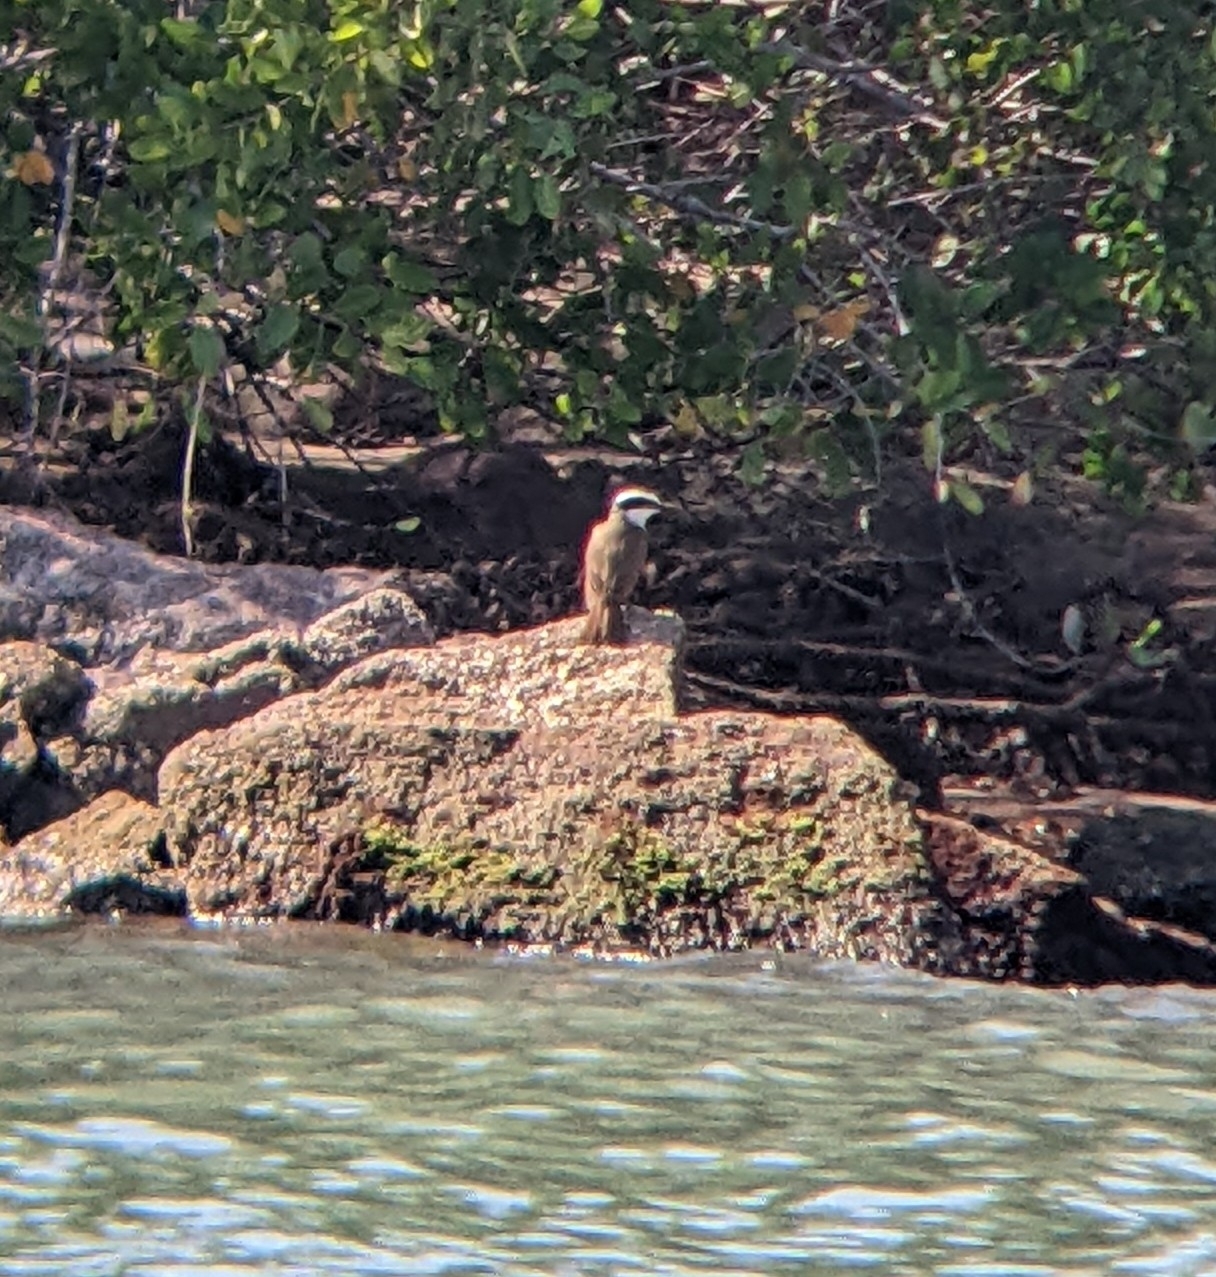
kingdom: Animalia
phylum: Chordata
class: Aves
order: Passeriformes
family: Tyrannidae
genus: Pitangus
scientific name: Pitangus sulphuratus
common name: Great kiskadee
